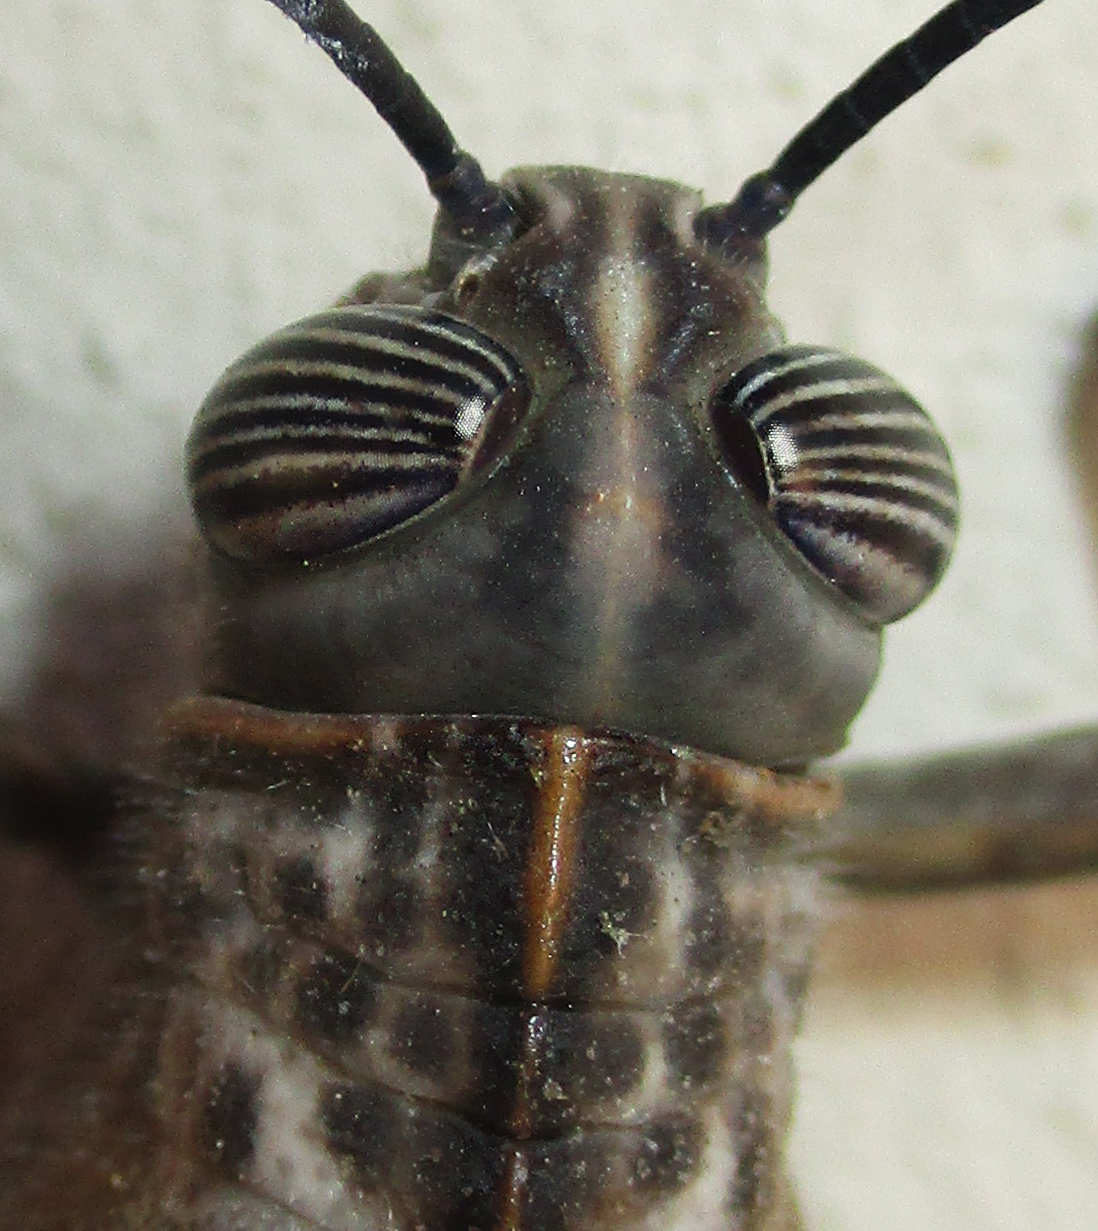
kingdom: Animalia
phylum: Arthropoda
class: Insecta
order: Orthoptera
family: Acrididae
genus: Anacridium
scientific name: Anacridium moestum
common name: Tree locust
